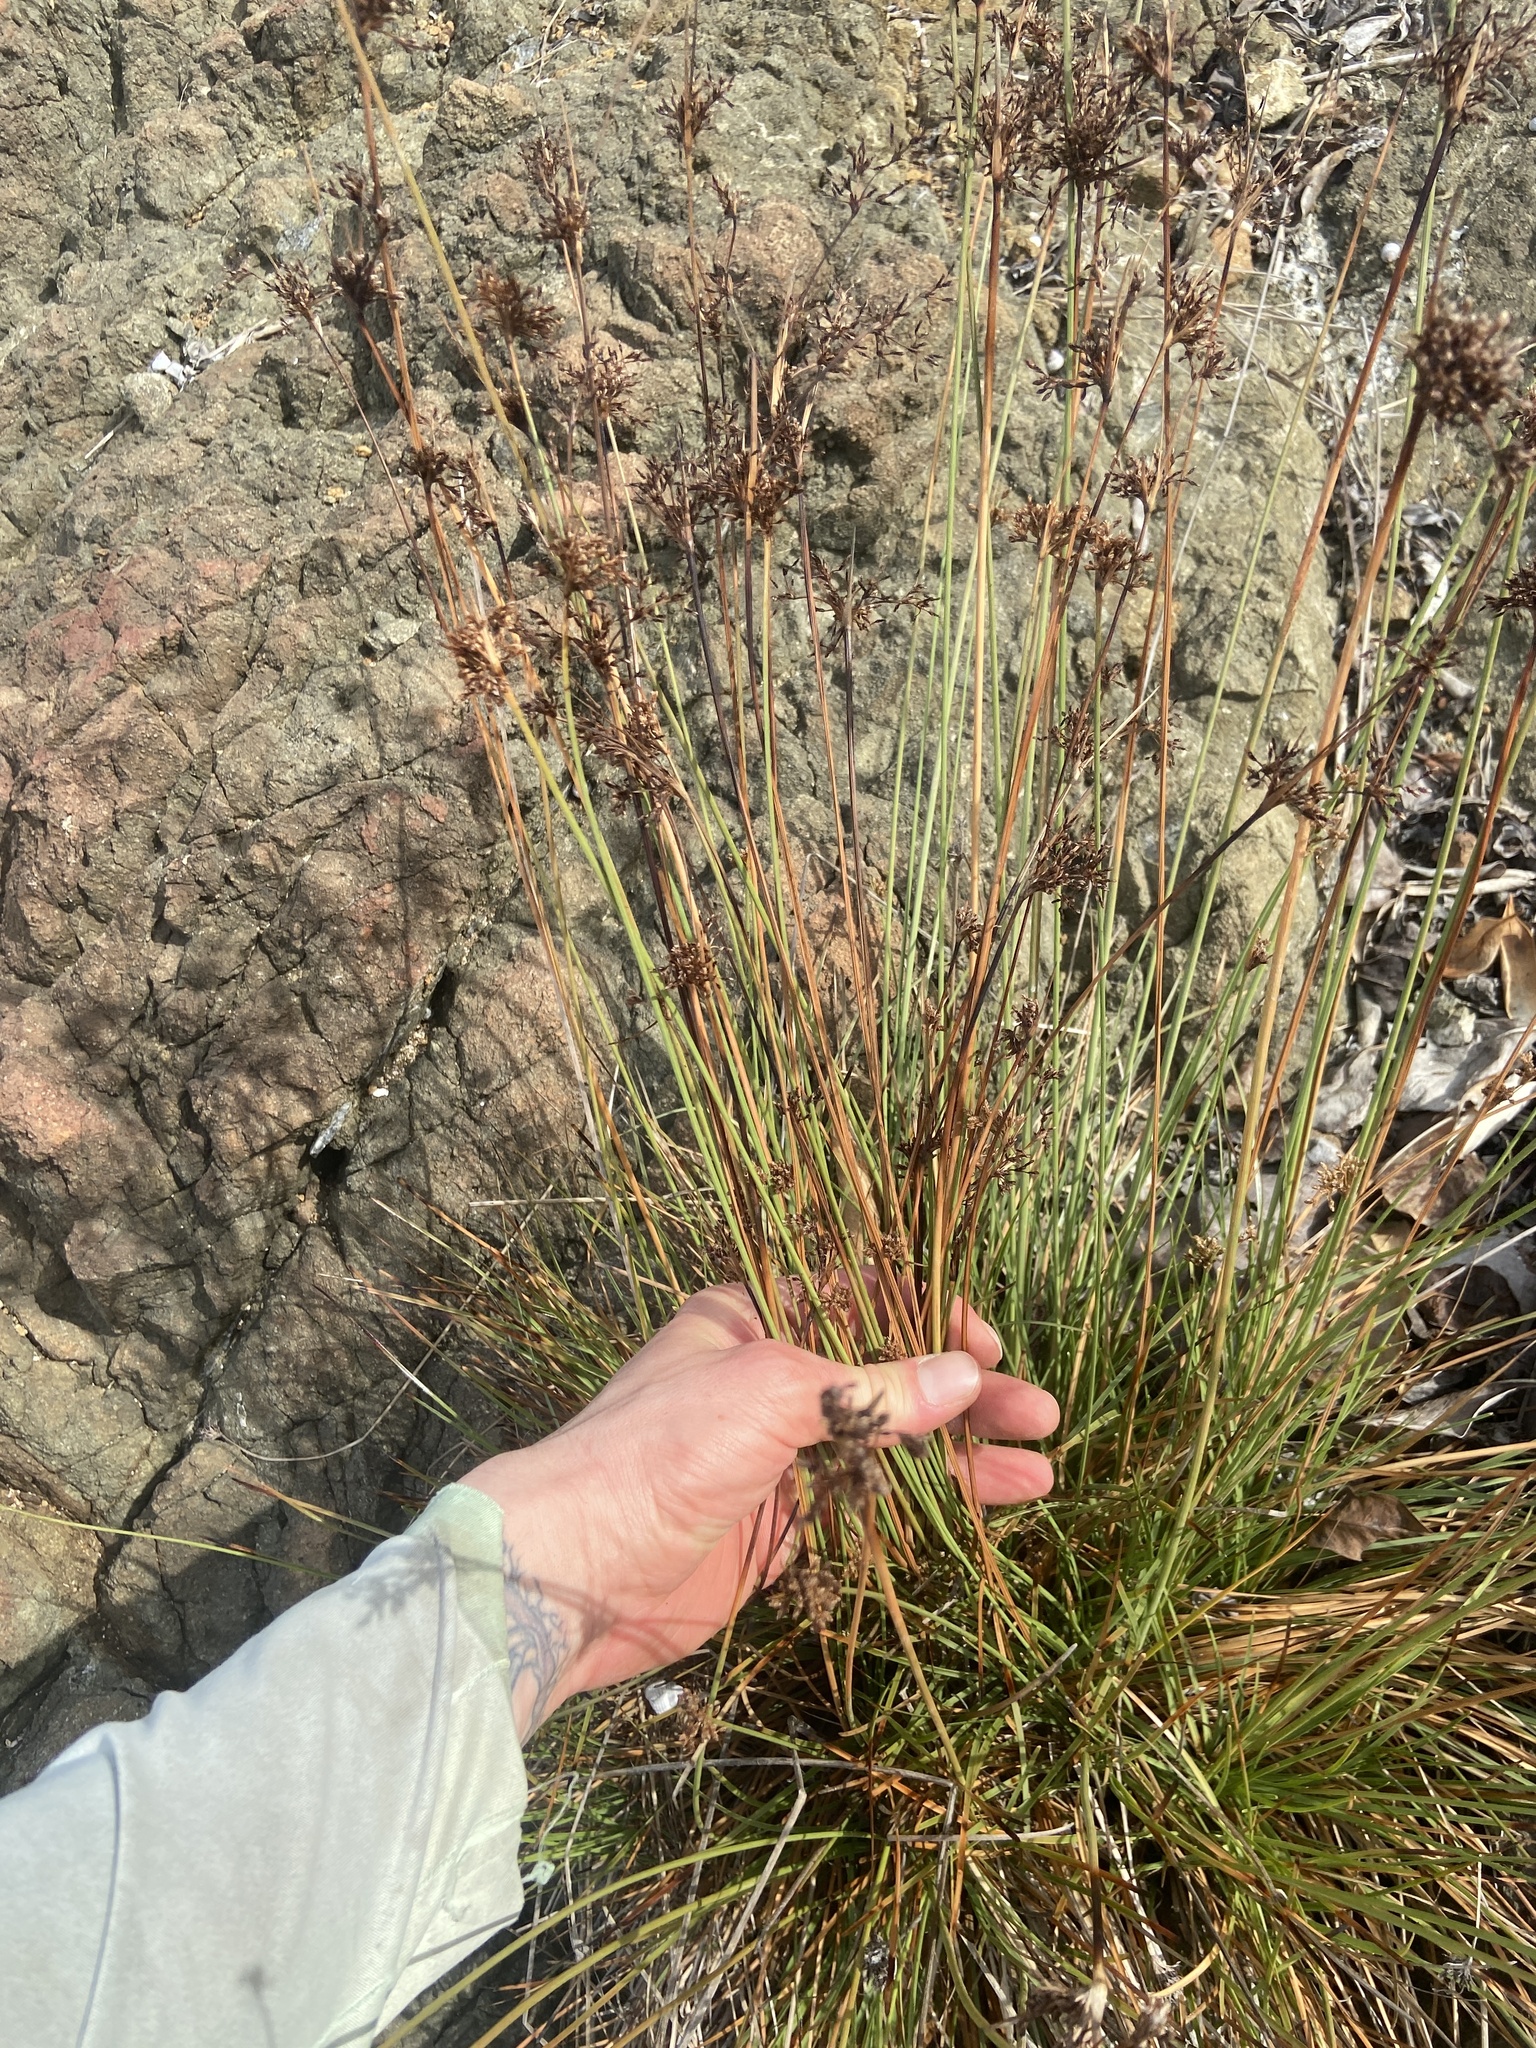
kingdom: Plantae
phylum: Tracheophyta
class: Liliopsida
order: Poales
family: Cyperaceae
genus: Fimbristylis
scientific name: Fimbristylis cymosa
